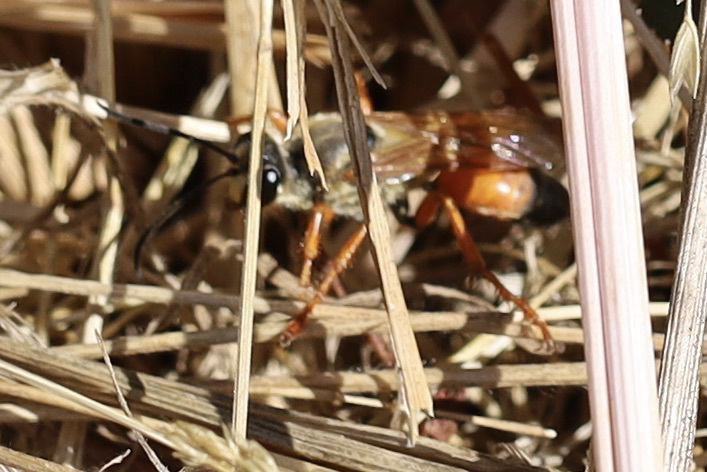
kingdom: Animalia
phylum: Arthropoda
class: Insecta
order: Hymenoptera
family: Sphecidae
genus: Sphex
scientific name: Sphex ichneumoneus
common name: Great golden digger wasp
